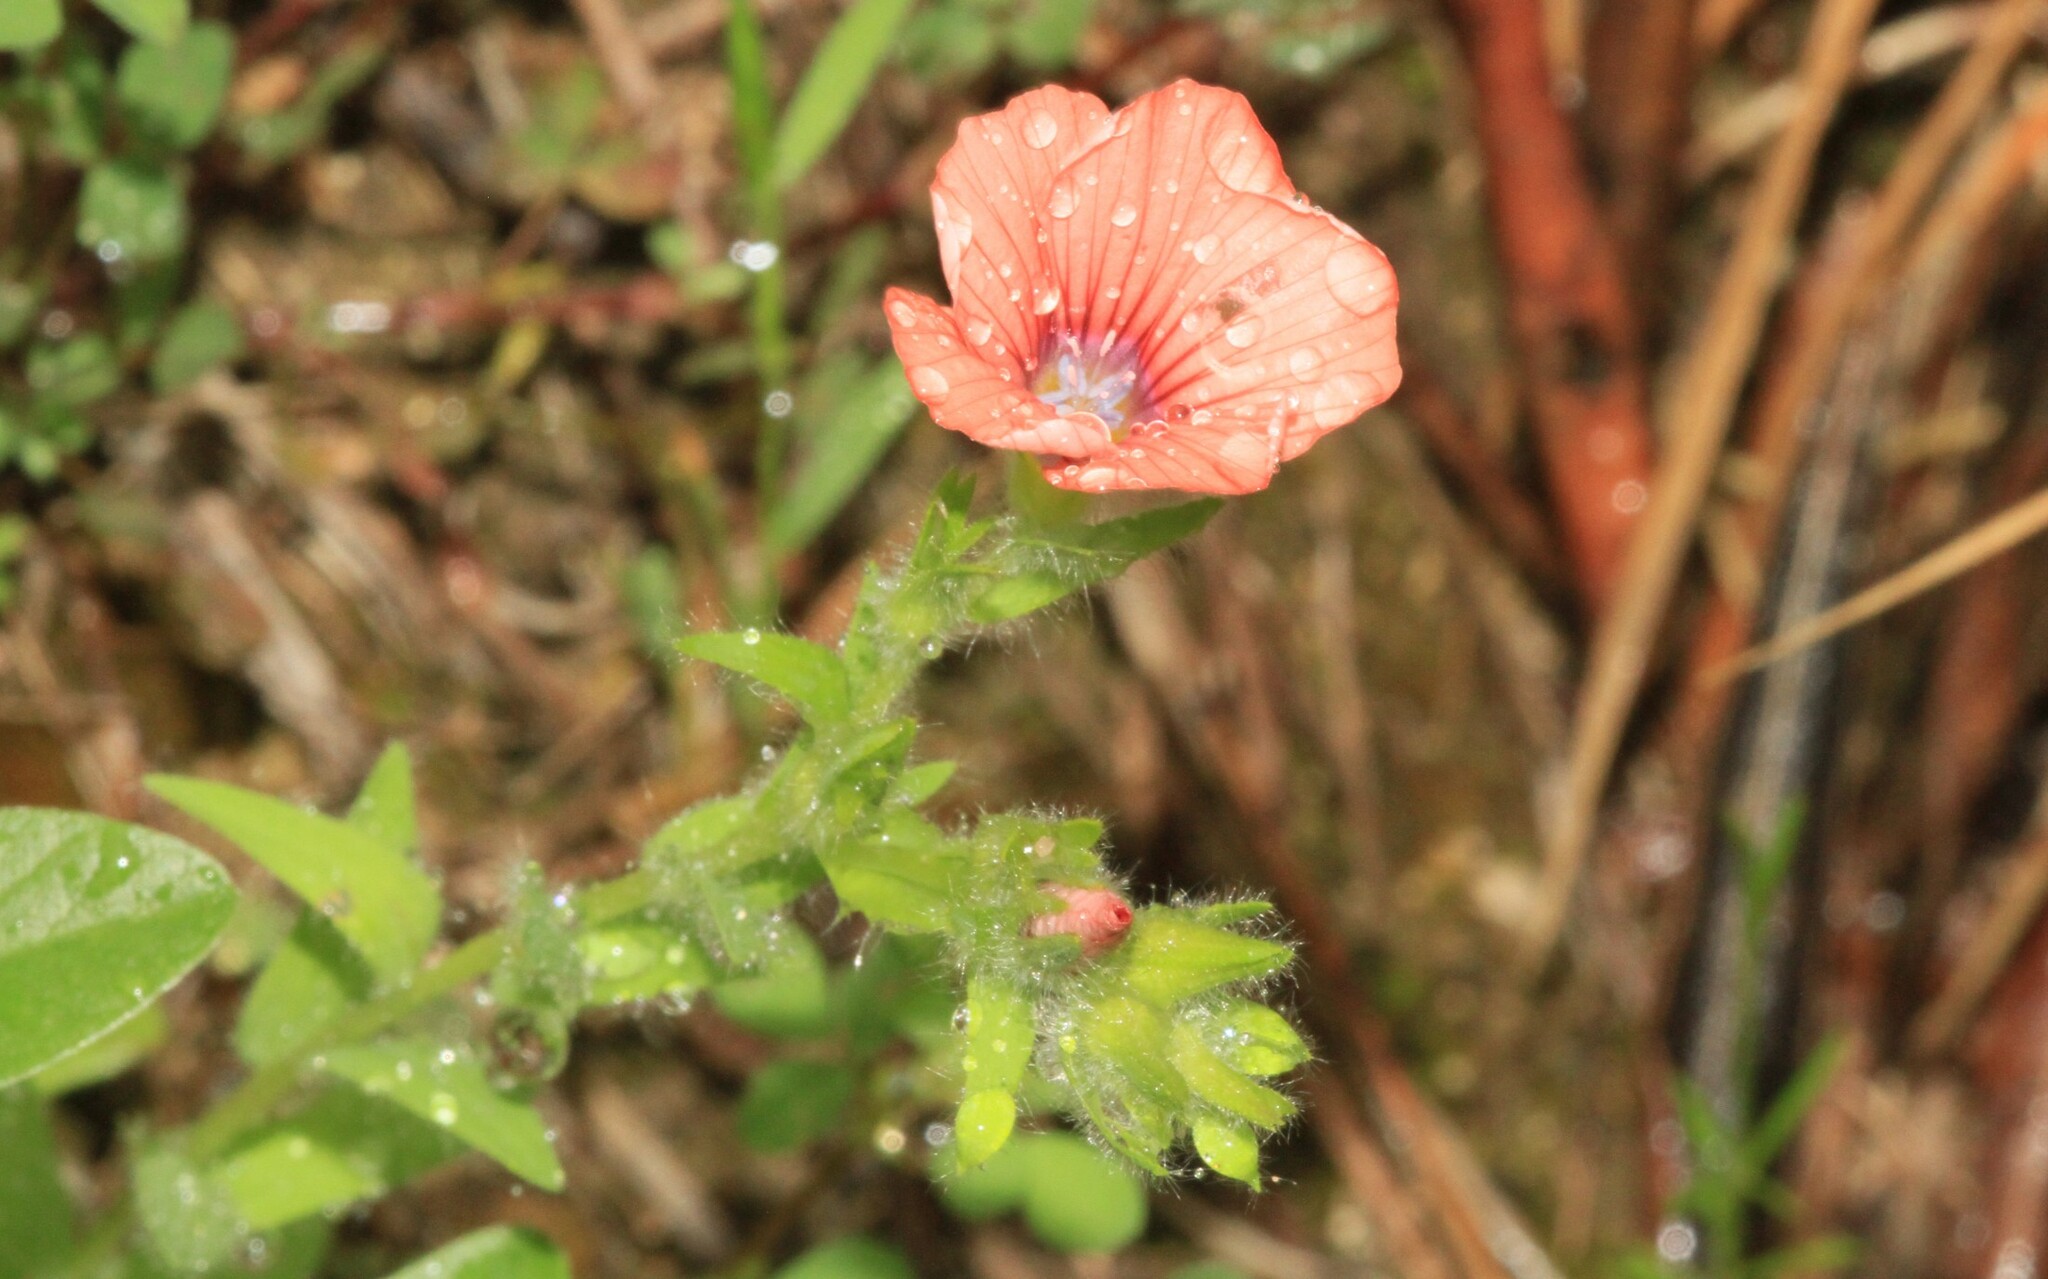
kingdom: Plantae
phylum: Tracheophyta
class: Magnoliopsida
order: Malpighiales
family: Linaceae
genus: Linum
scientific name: Linum pubescens
